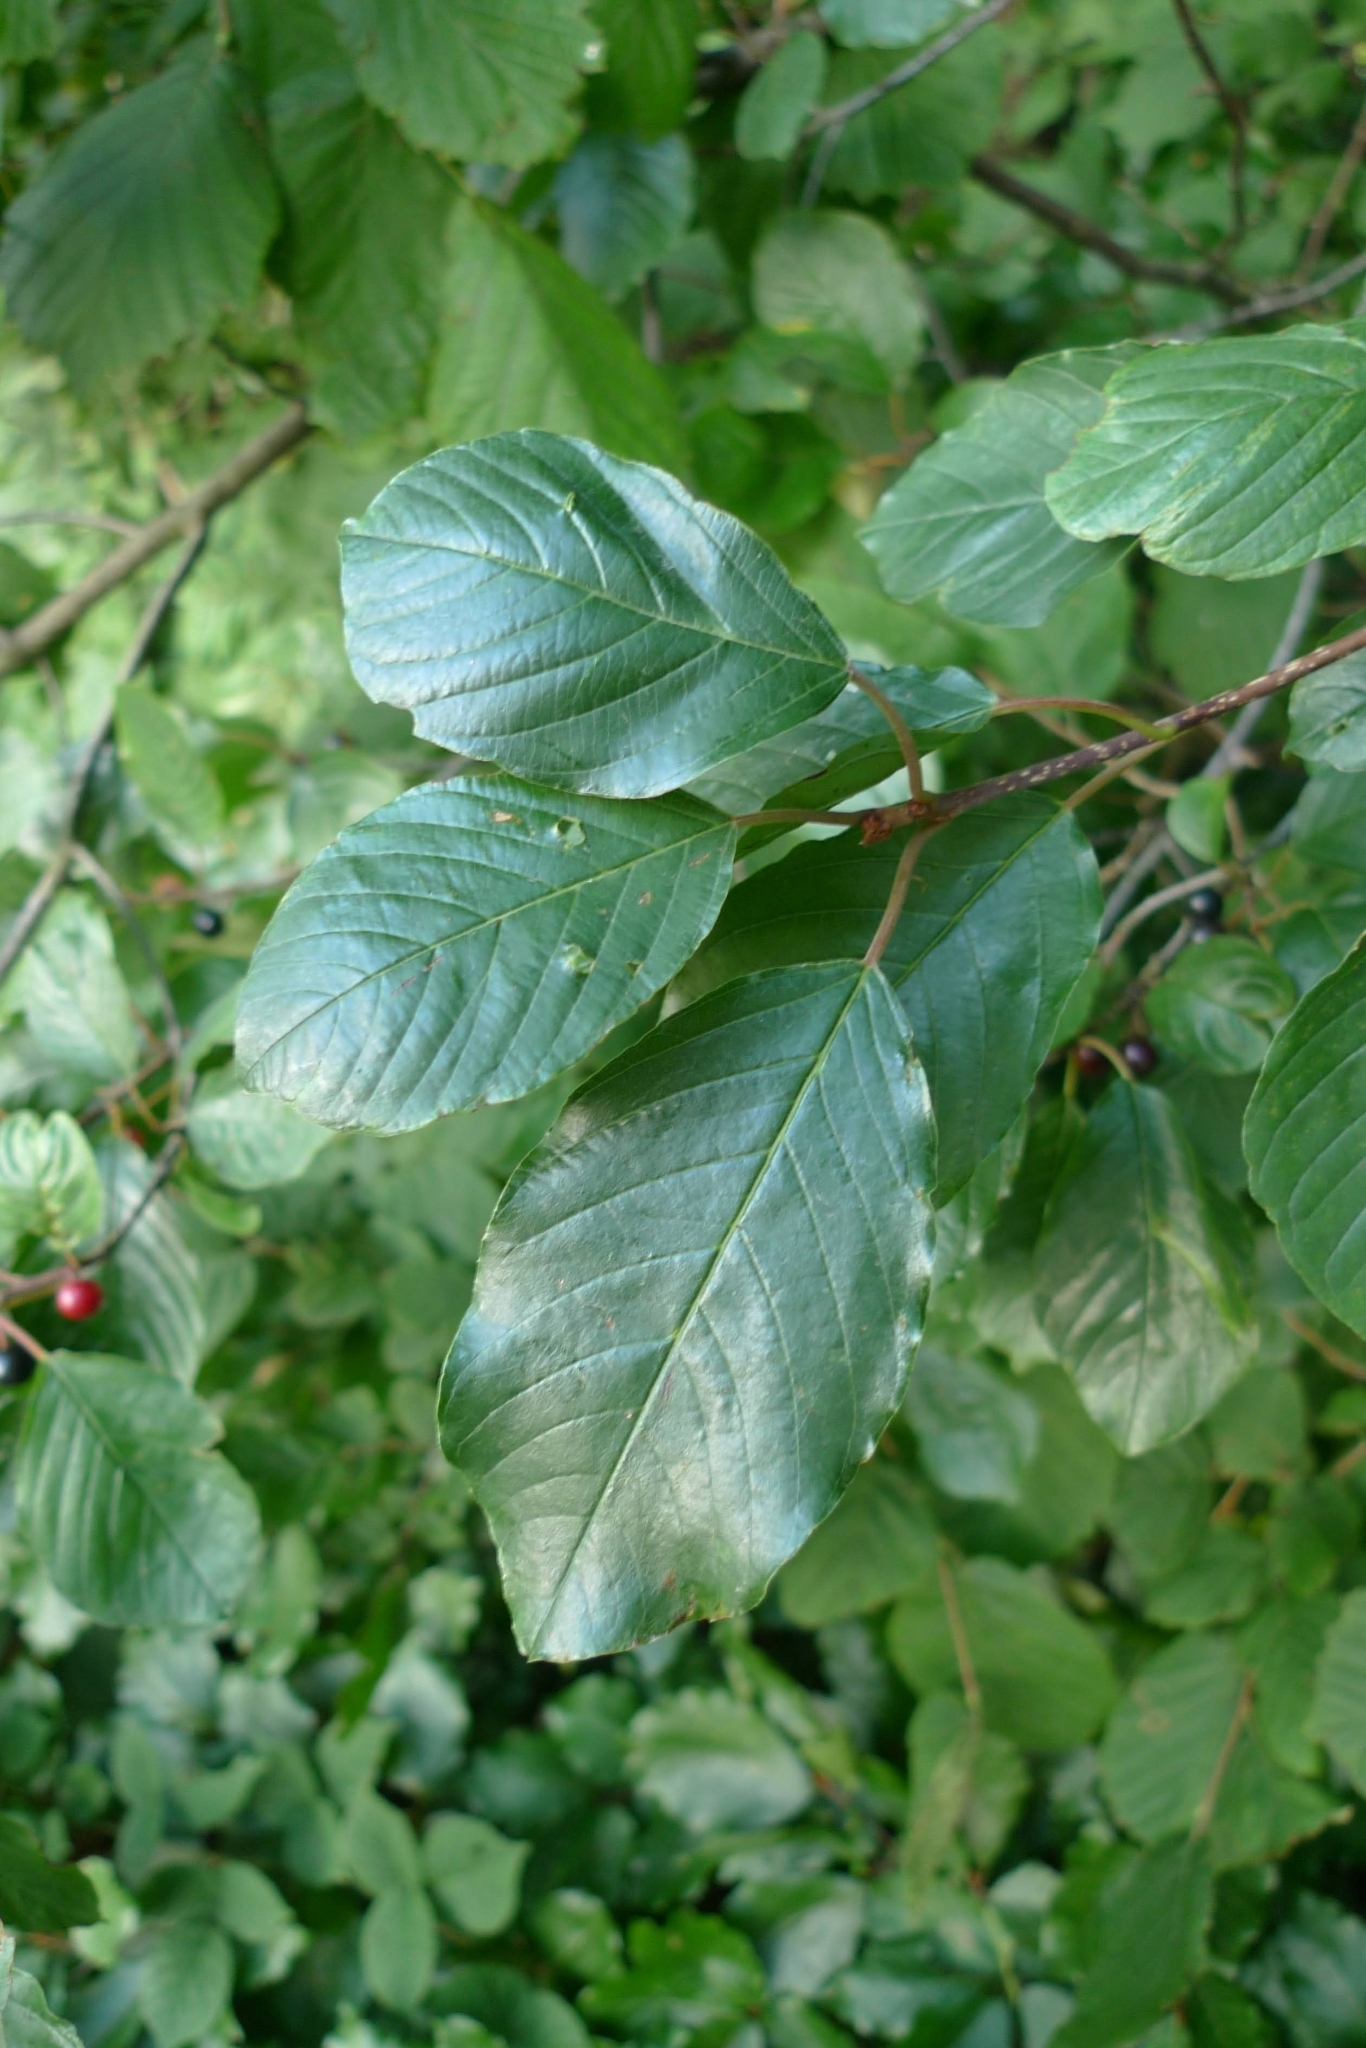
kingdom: Plantae
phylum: Tracheophyta
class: Magnoliopsida
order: Rosales
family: Rhamnaceae
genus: Frangula
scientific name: Frangula alnus
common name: Alder buckthorn
